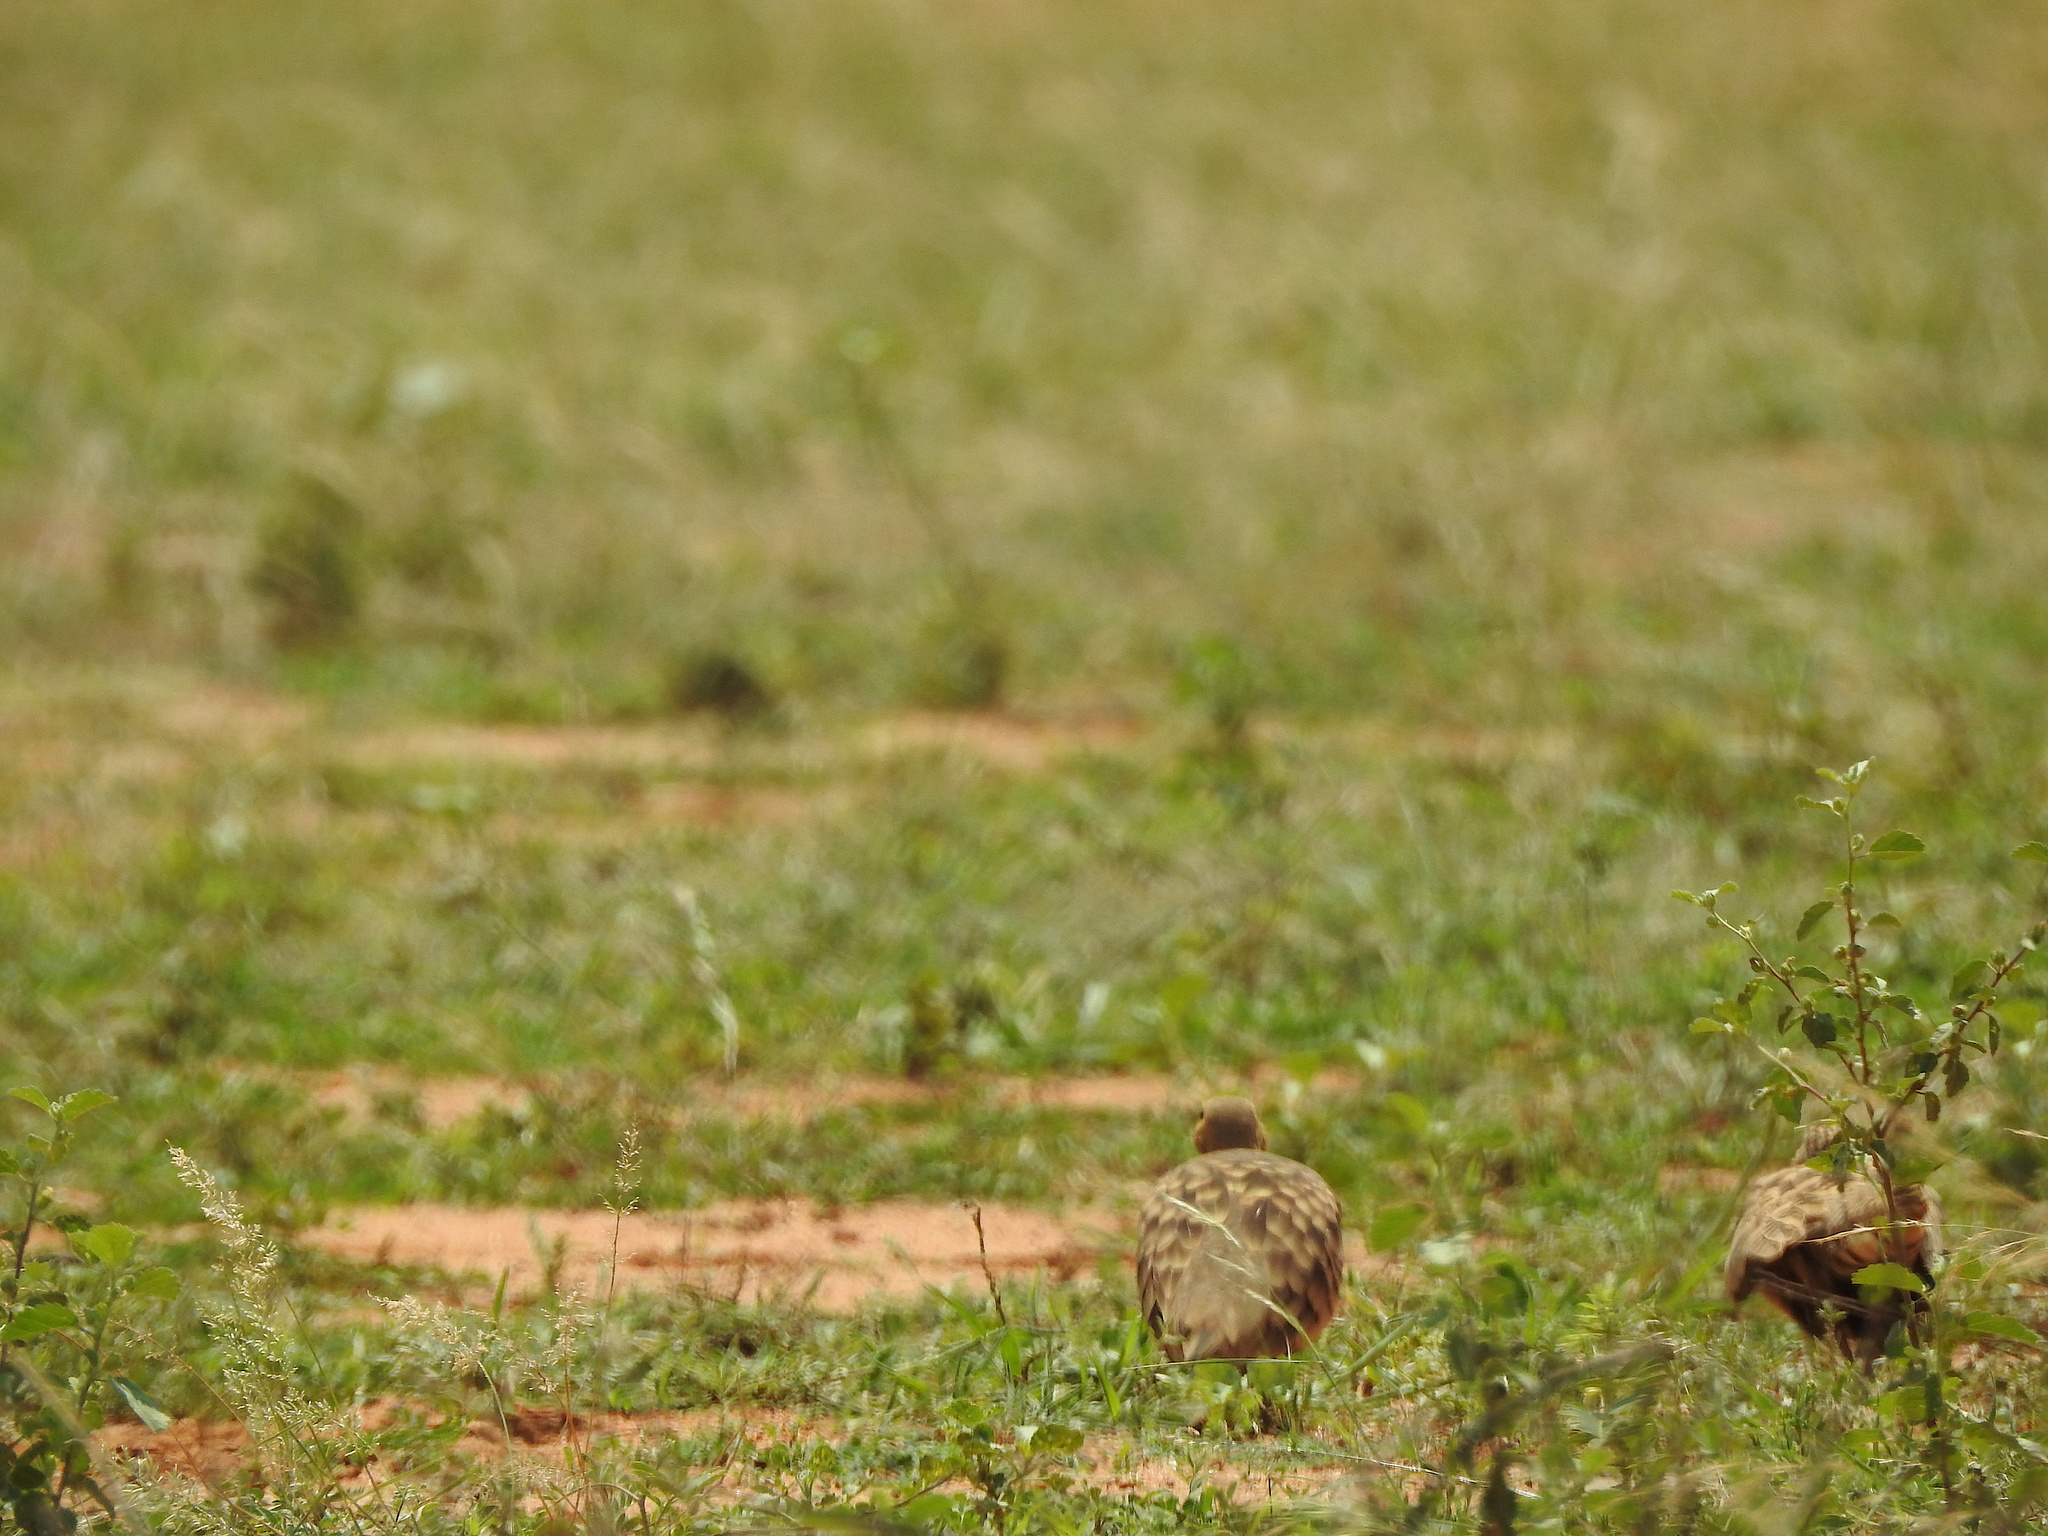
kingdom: Animalia
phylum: Chordata
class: Aves
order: Pteroclidiformes
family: Pteroclididae
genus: Pterocles
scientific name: Pterocles exustus
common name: Chestnut-bellied sandgrouse
